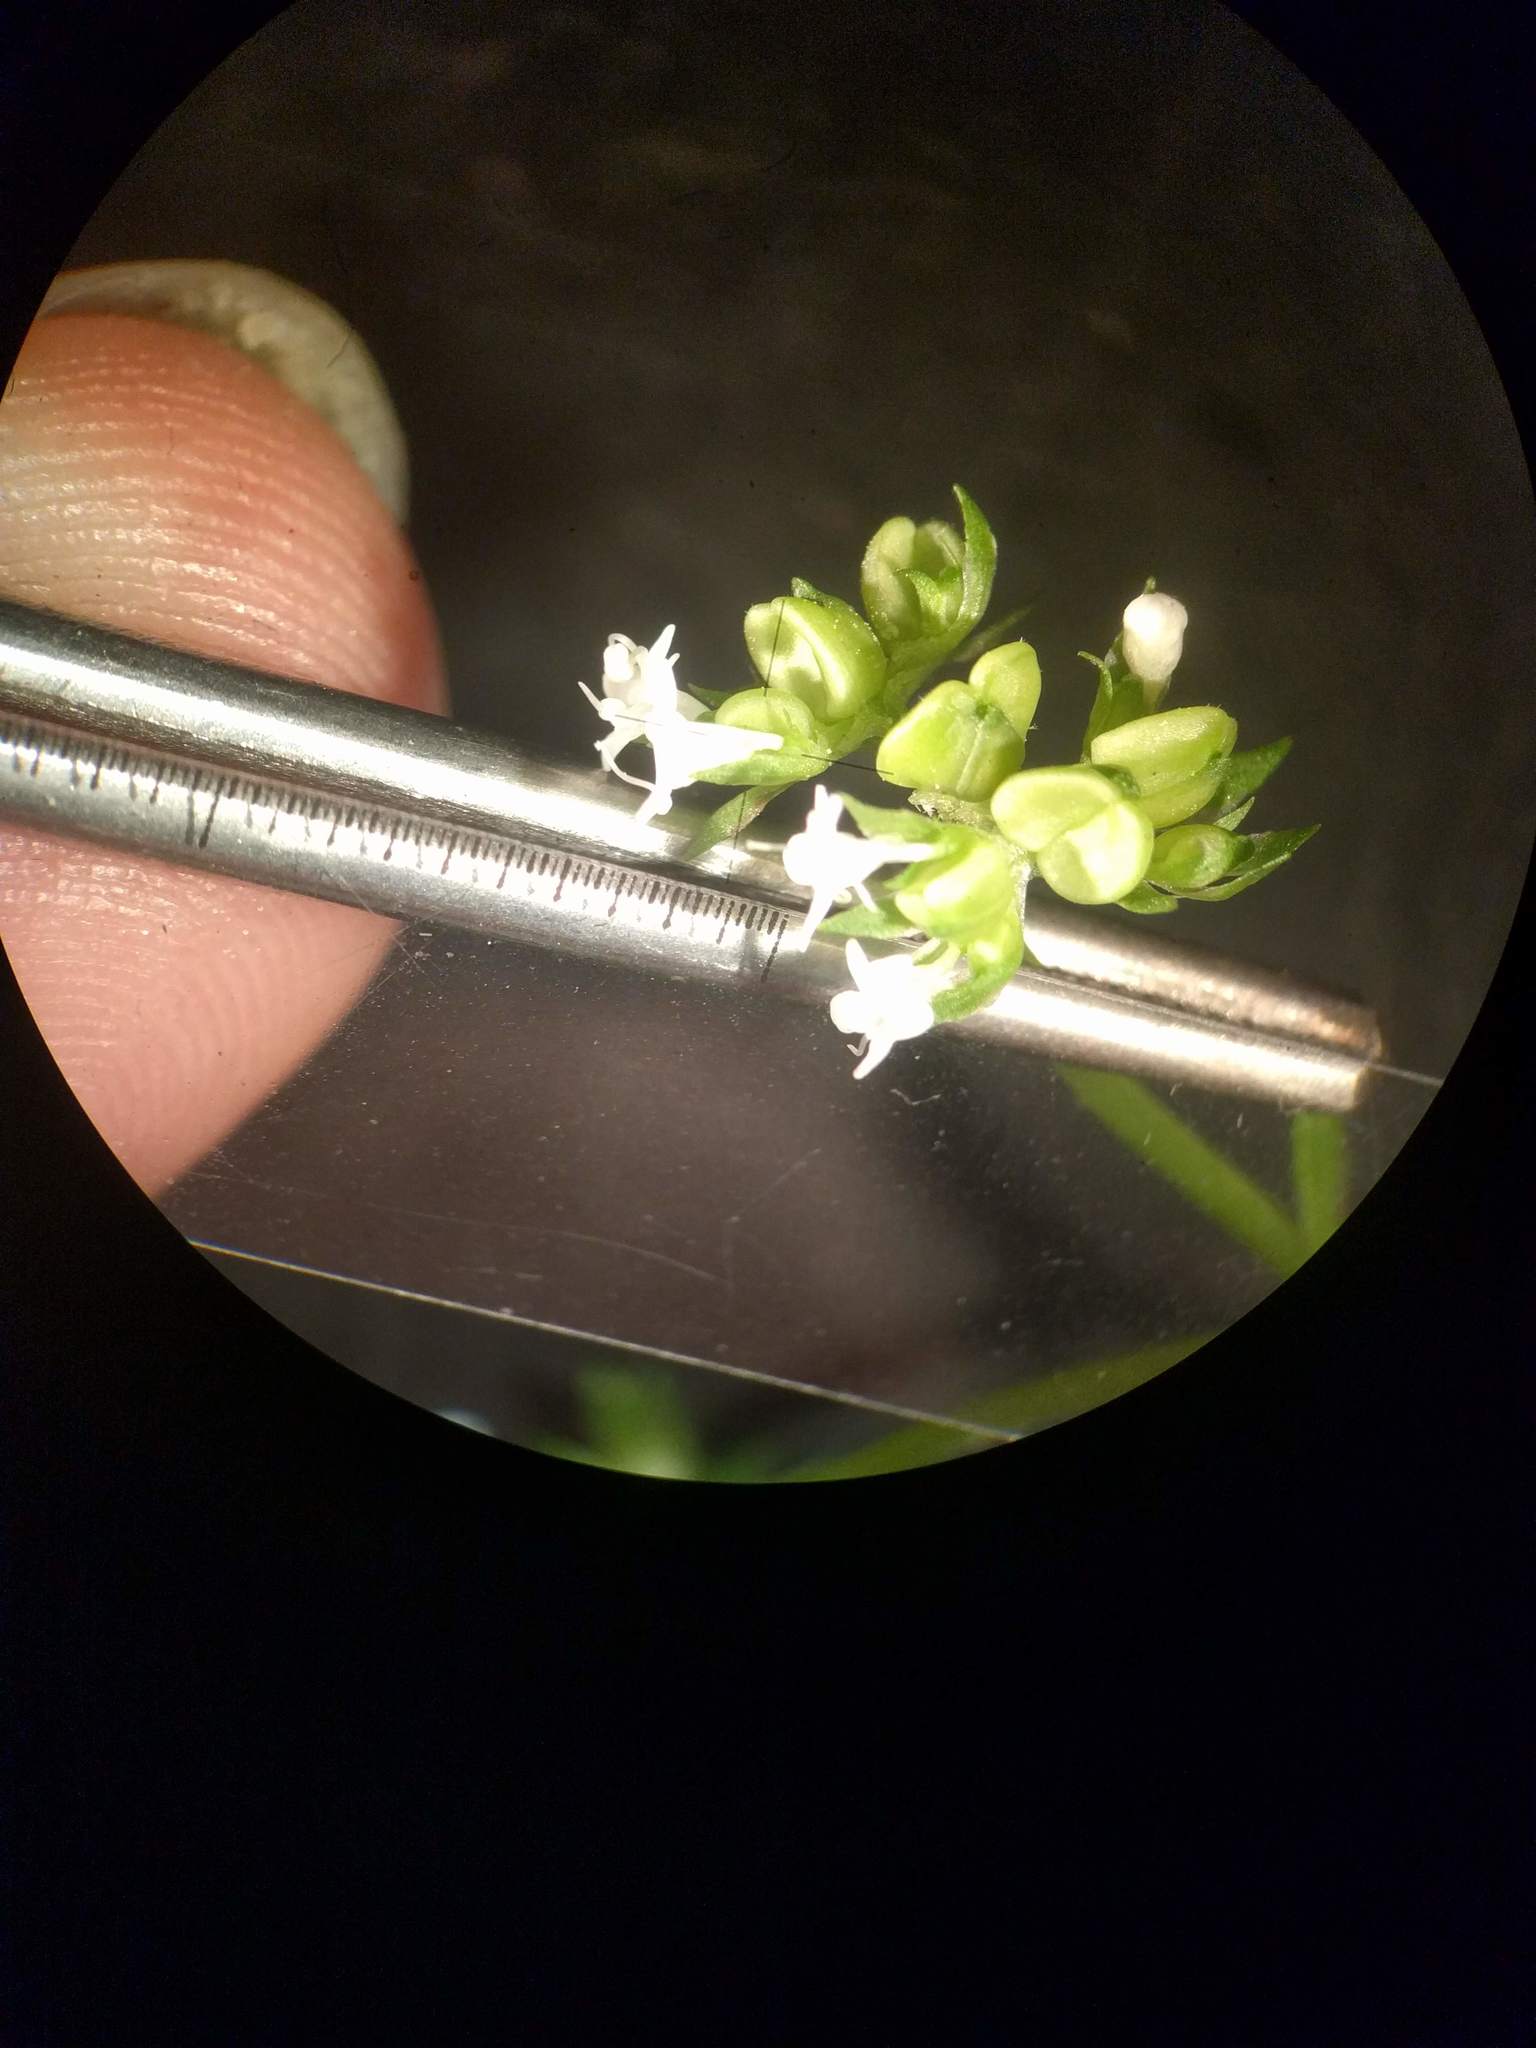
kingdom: Plantae
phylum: Tracheophyta
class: Magnoliopsida
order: Dipsacales
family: Caprifoliaceae
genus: Valerianella
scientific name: Valerianella umbilicata
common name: Wood's cornsalad
